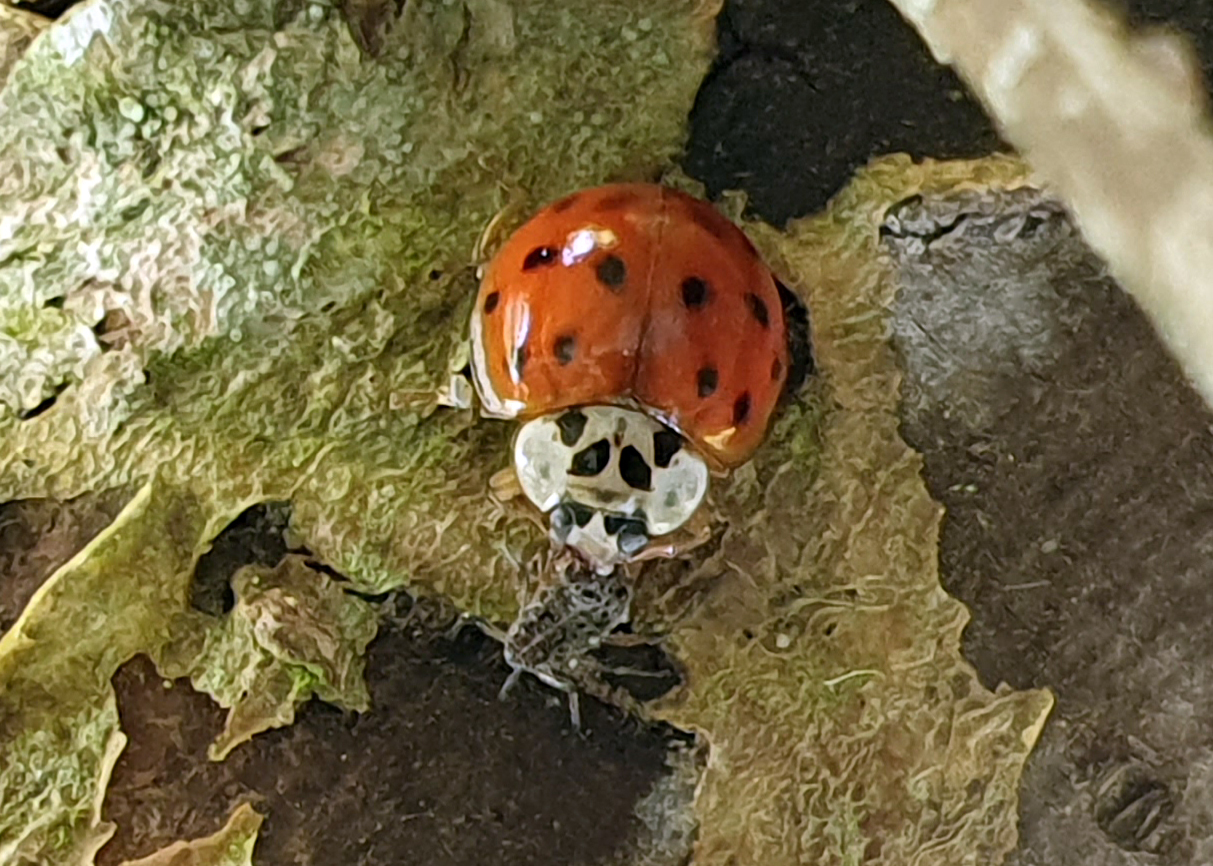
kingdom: Animalia
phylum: Arthropoda
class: Insecta
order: Coleoptera
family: Coccinellidae
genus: Harmonia
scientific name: Harmonia axyridis
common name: Harlequin ladybird
